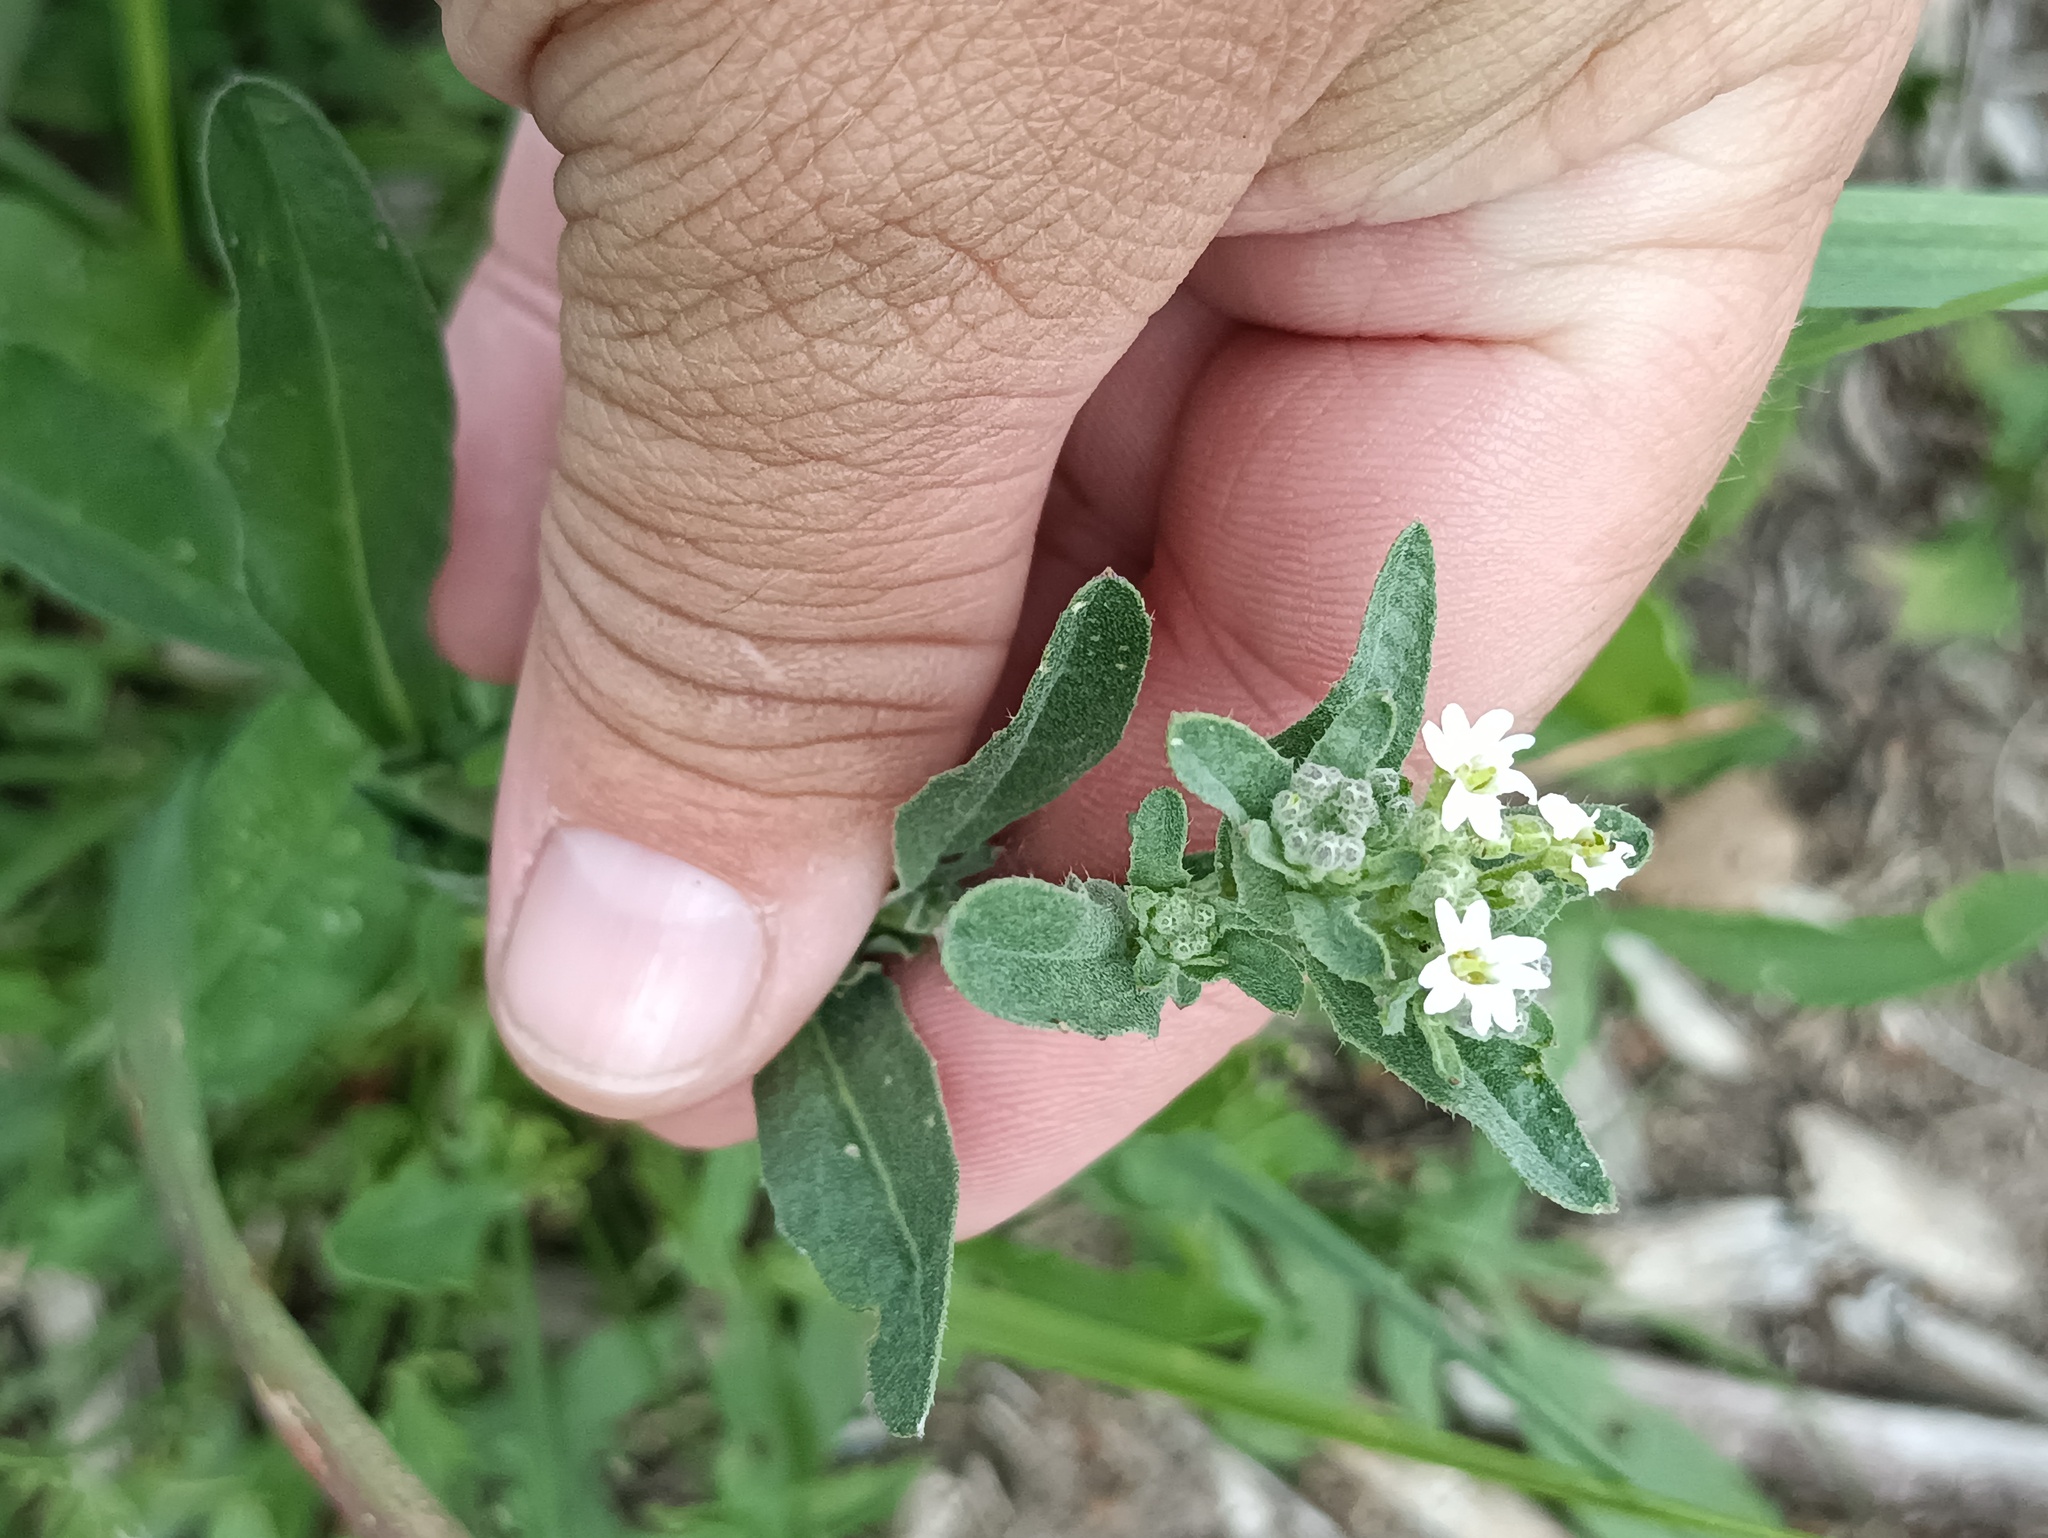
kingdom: Plantae
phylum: Tracheophyta
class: Magnoliopsida
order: Brassicales
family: Brassicaceae
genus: Berteroa
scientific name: Berteroa incana
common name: Hoary alison
